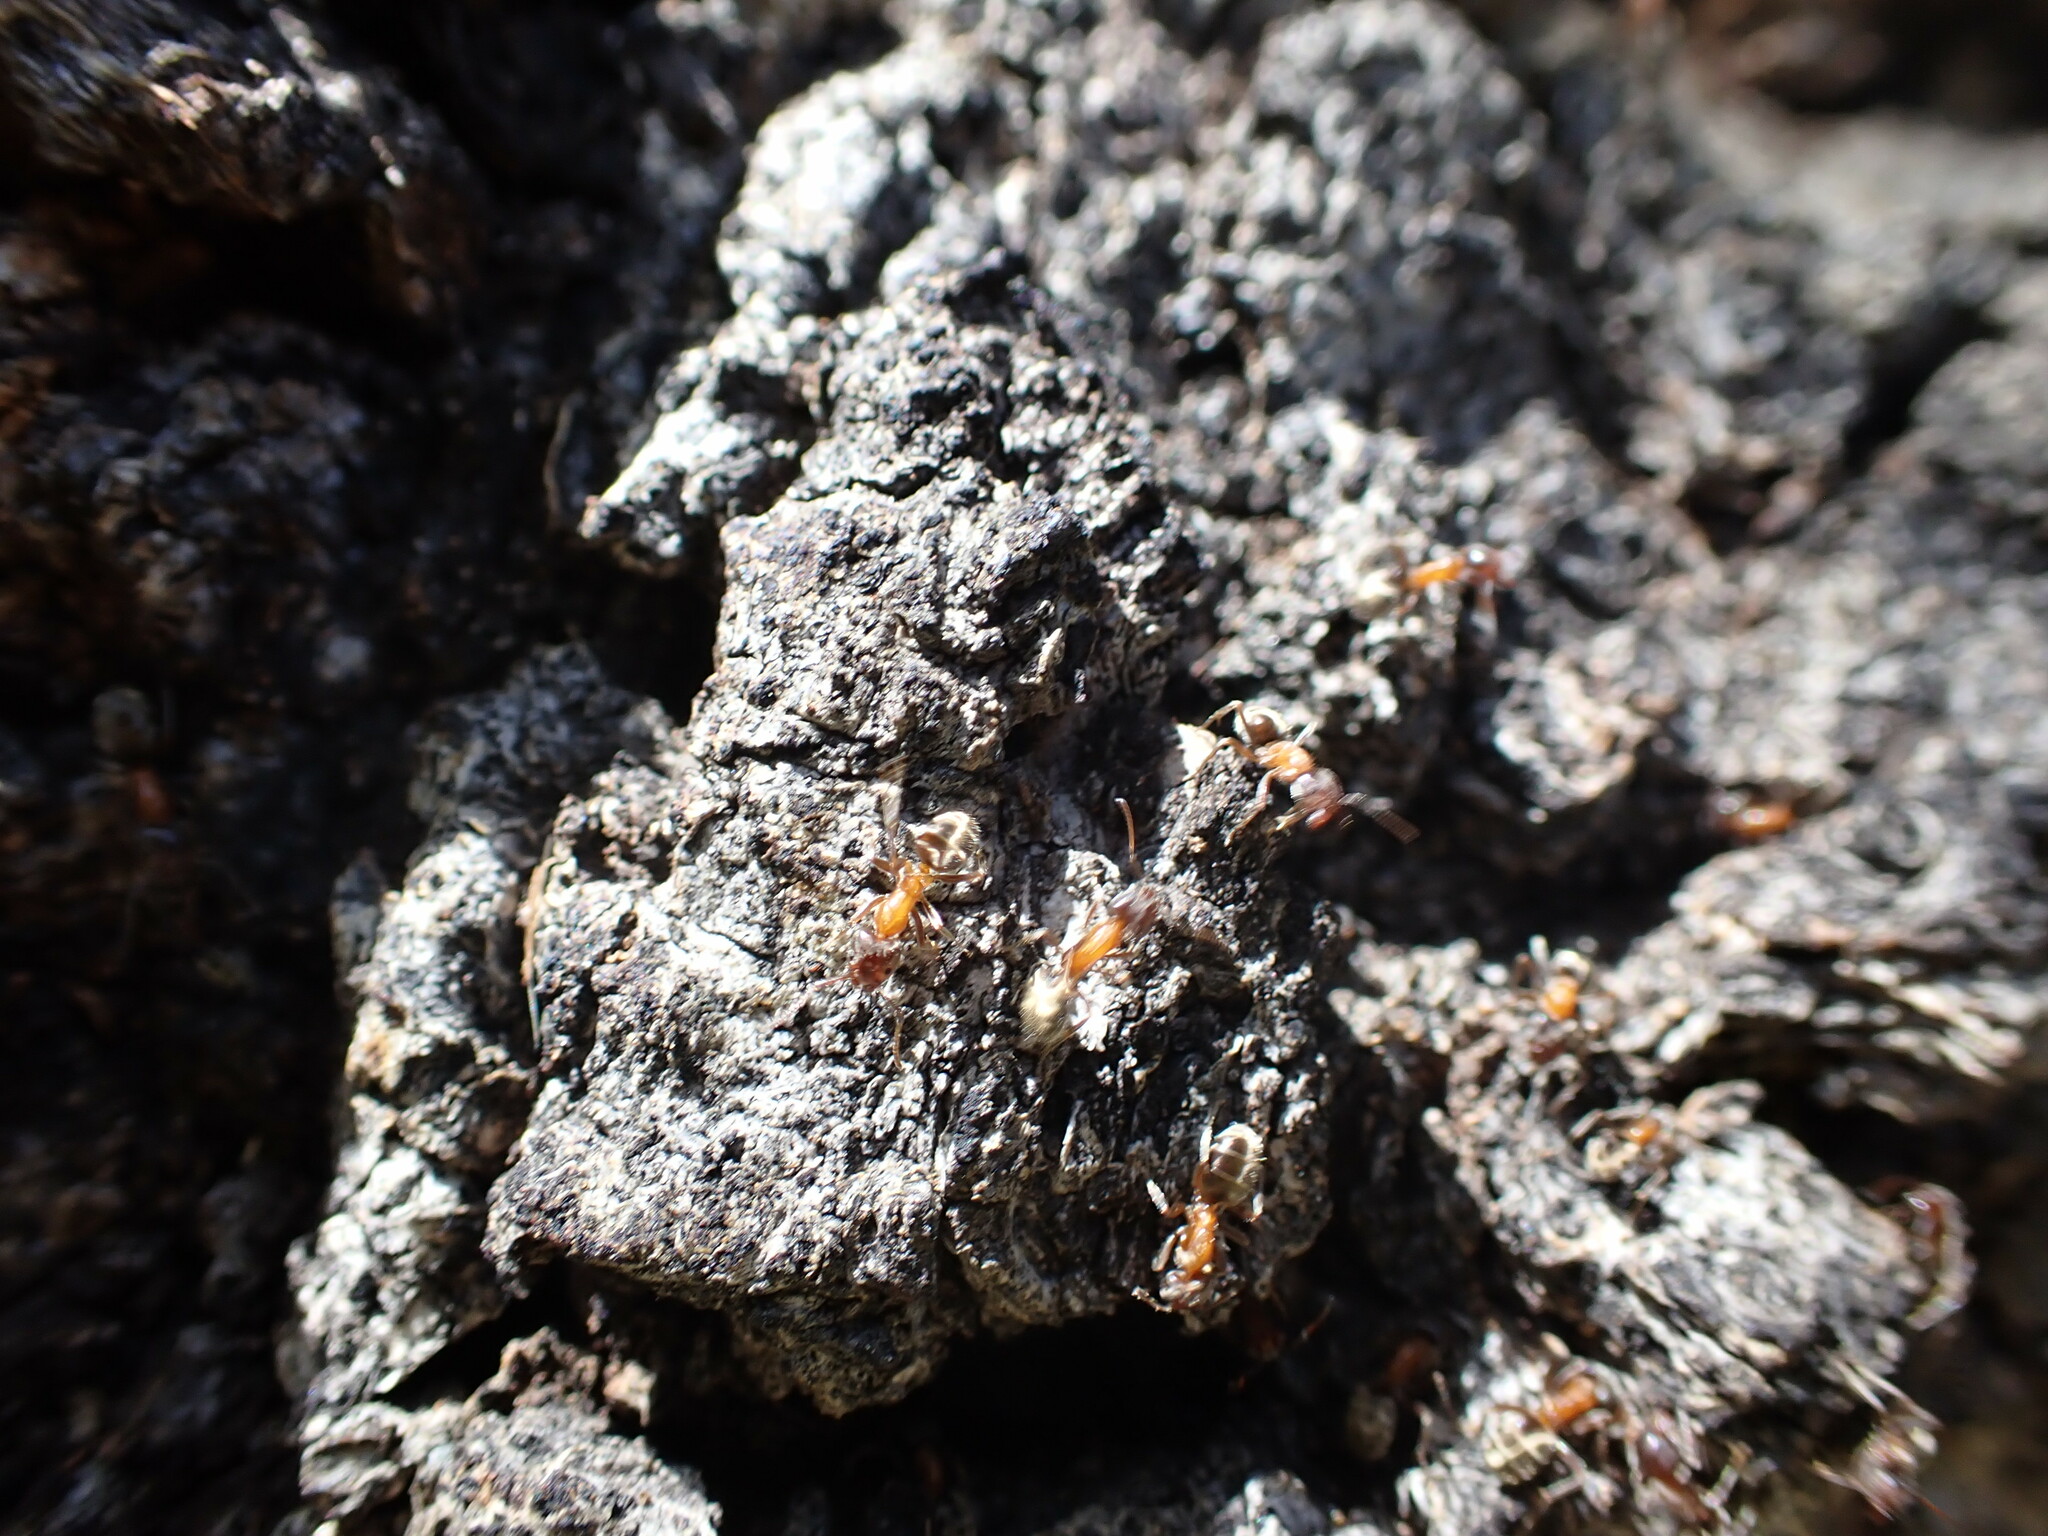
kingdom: Animalia
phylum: Arthropoda
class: Insecta
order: Hymenoptera
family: Formicidae
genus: Liometopum
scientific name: Liometopum occidentale
